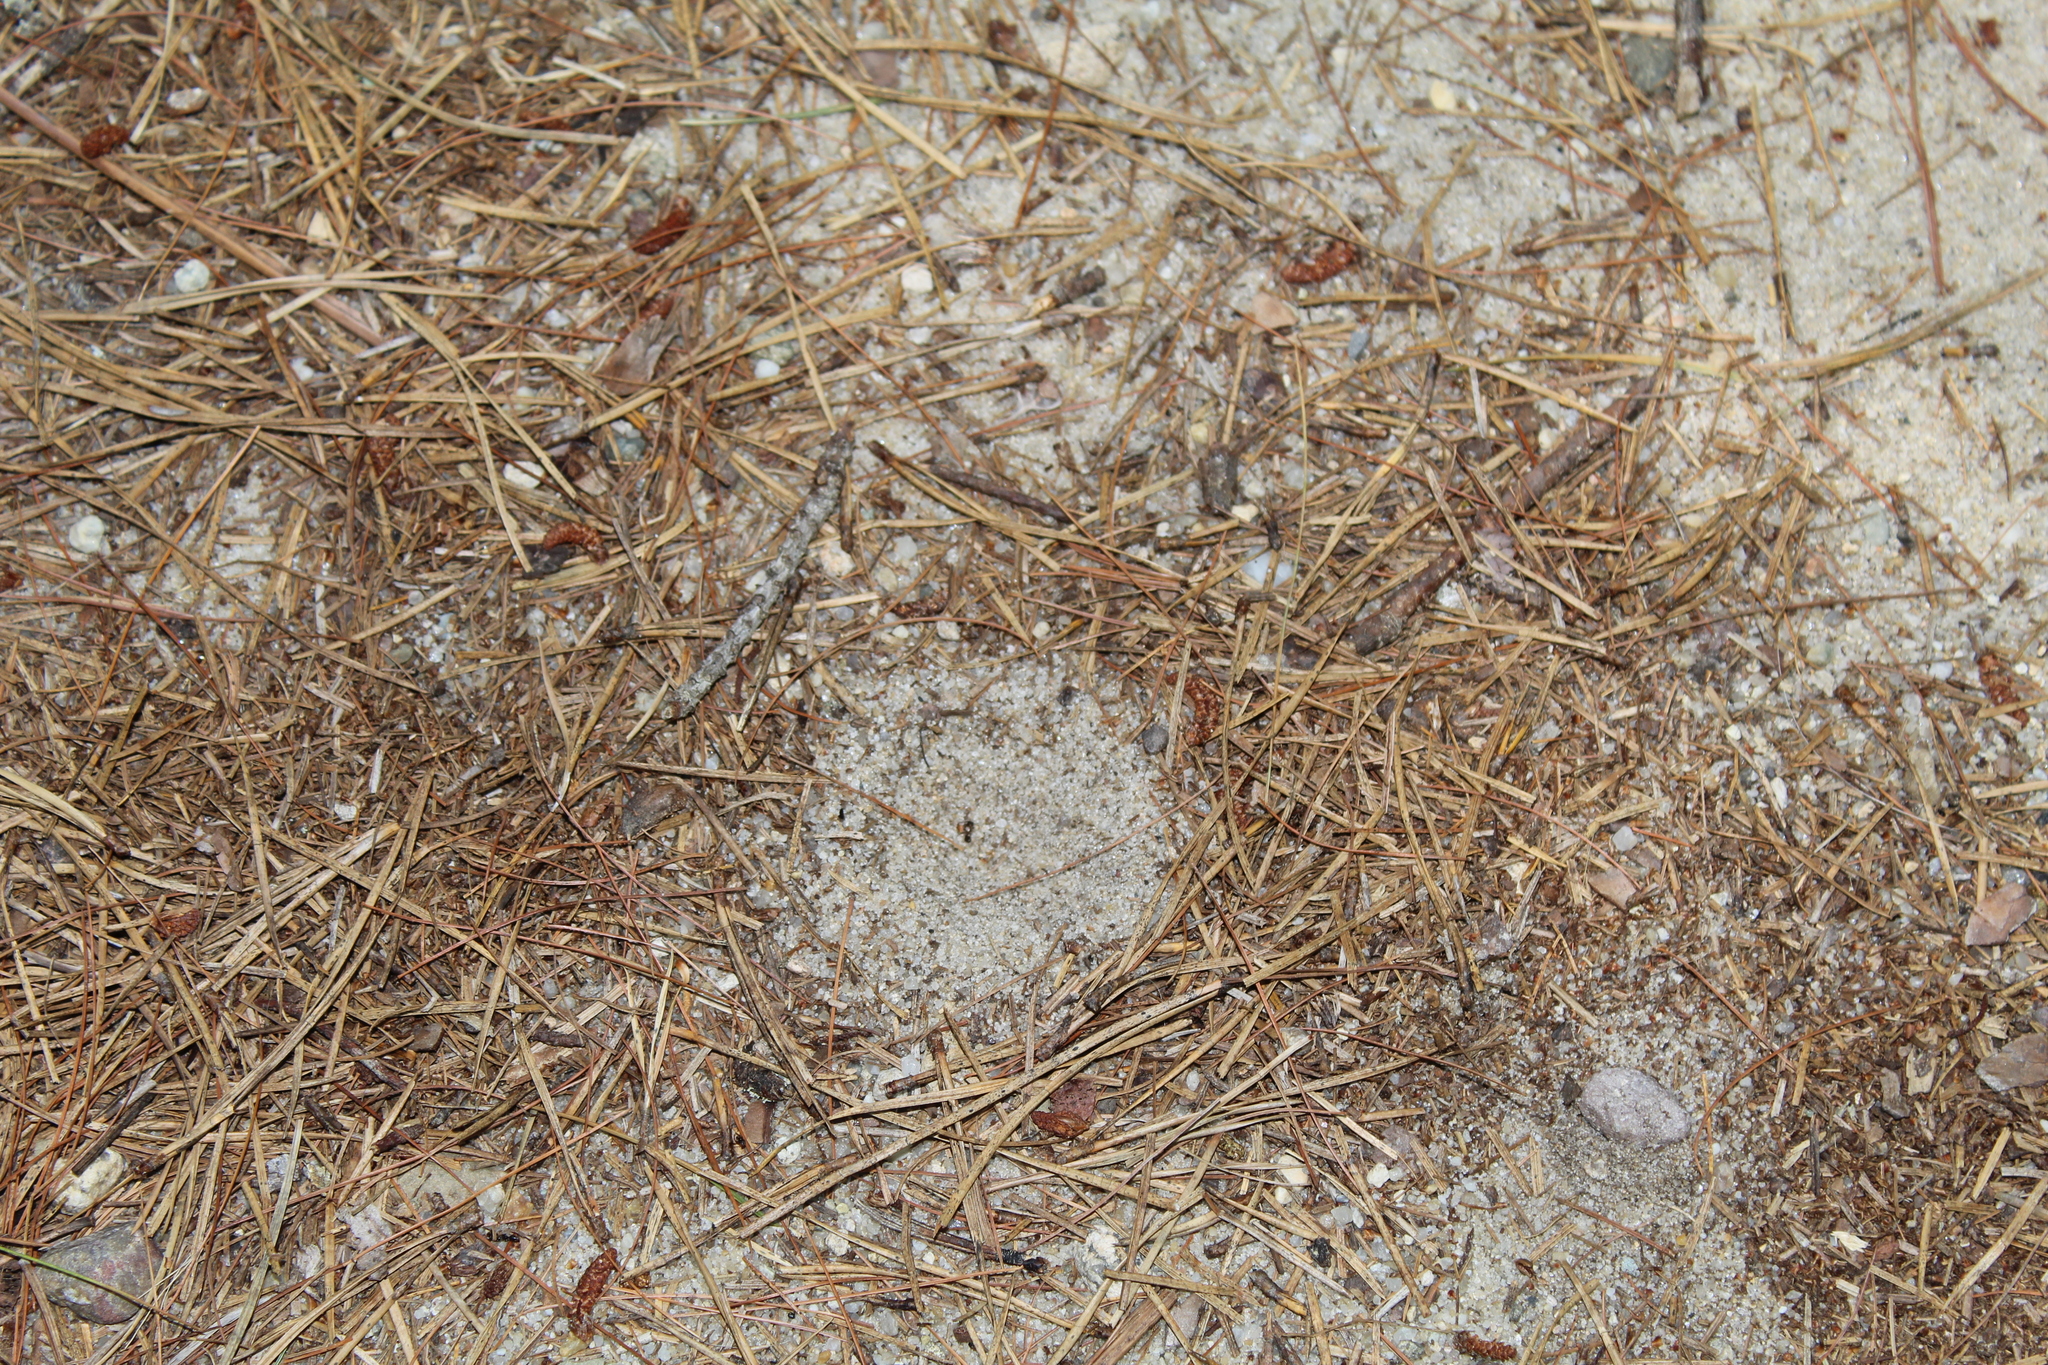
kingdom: Animalia
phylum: Arthropoda
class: Insecta
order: Neuroptera
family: Myrmeleontidae
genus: Myrmeleon
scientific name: Myrmeleon immaculatus
